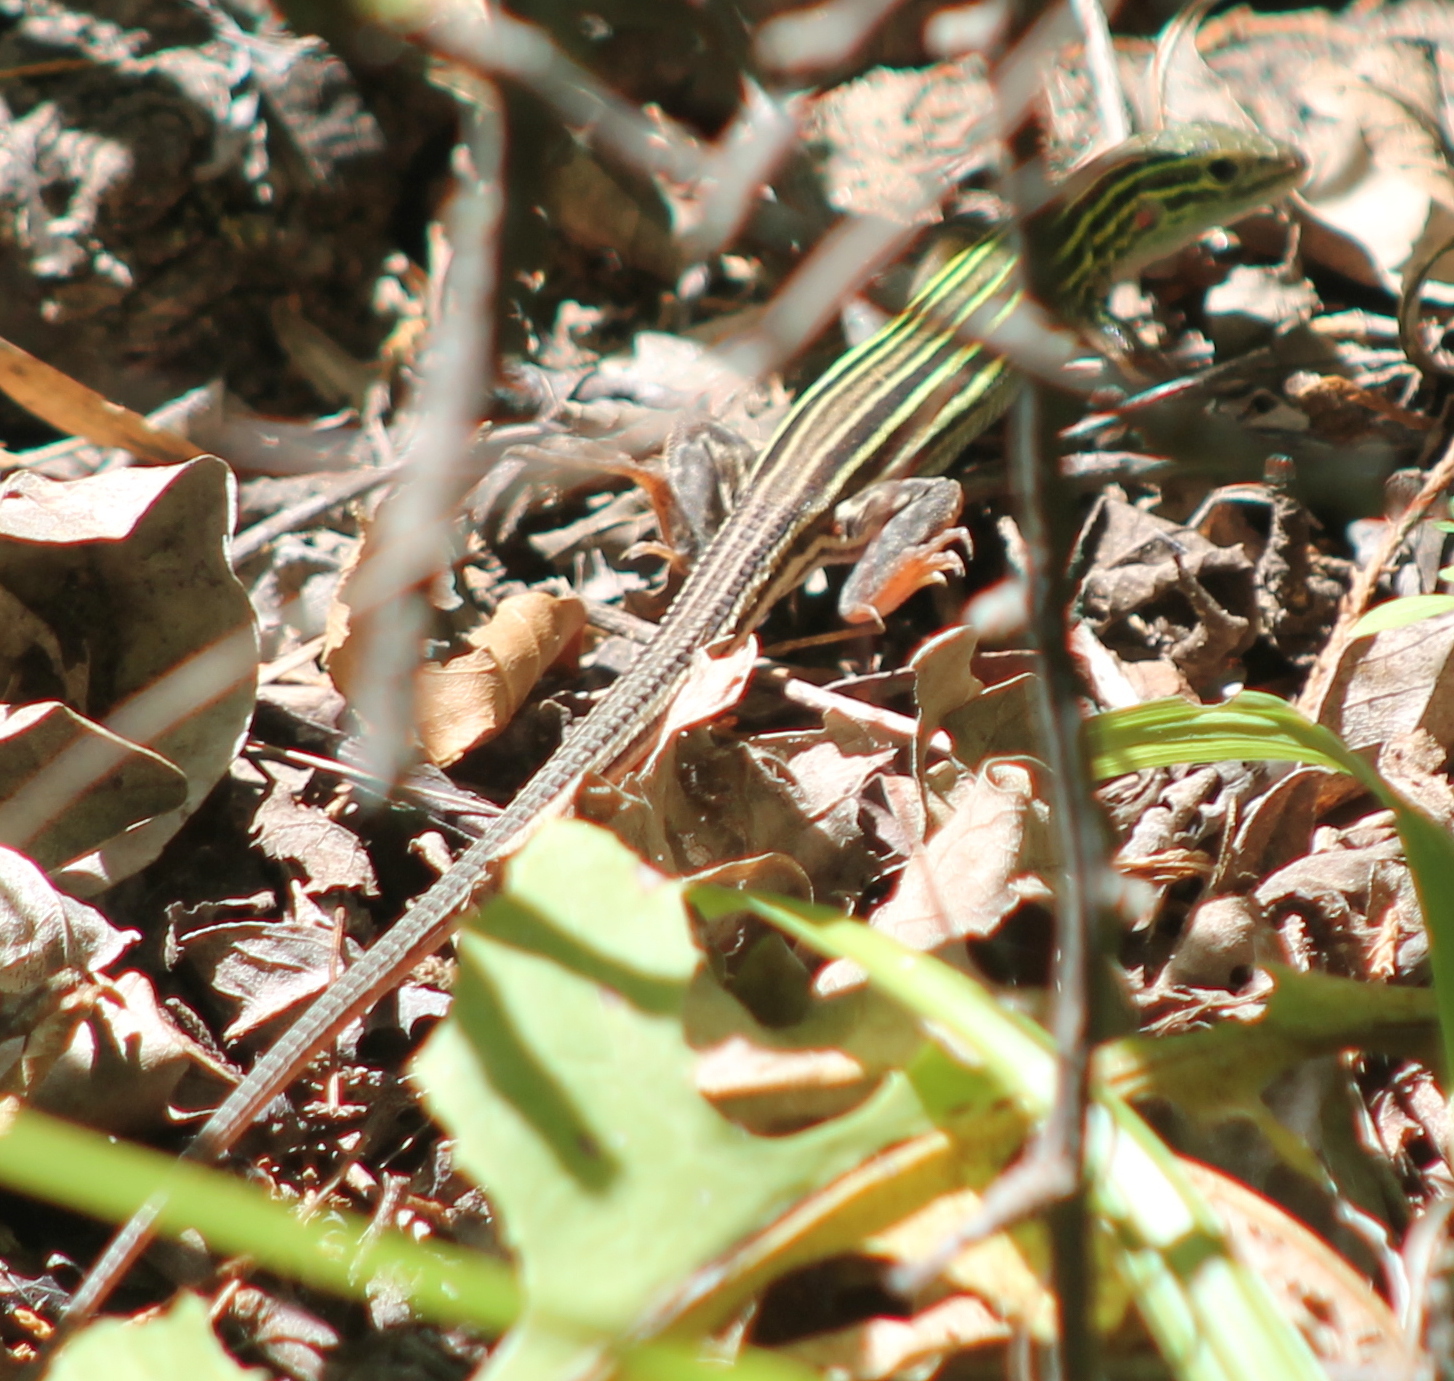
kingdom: Animalia
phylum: Chordata
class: Squamata
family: Teiidae
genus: Aspidoscelis
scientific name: Aspidoscelis sexlineatus
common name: Six-lined racerunner
